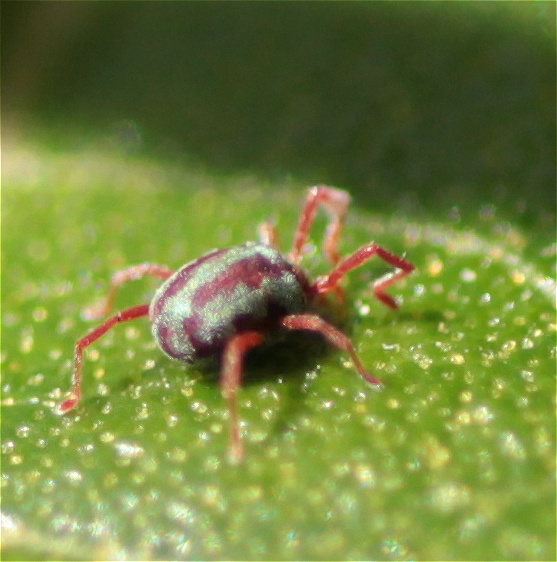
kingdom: Animalia
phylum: Arthropoda
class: Arachnida
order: Trombidiformes
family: Erythraeidae
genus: Balaustium
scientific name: Balaustium leanderi
